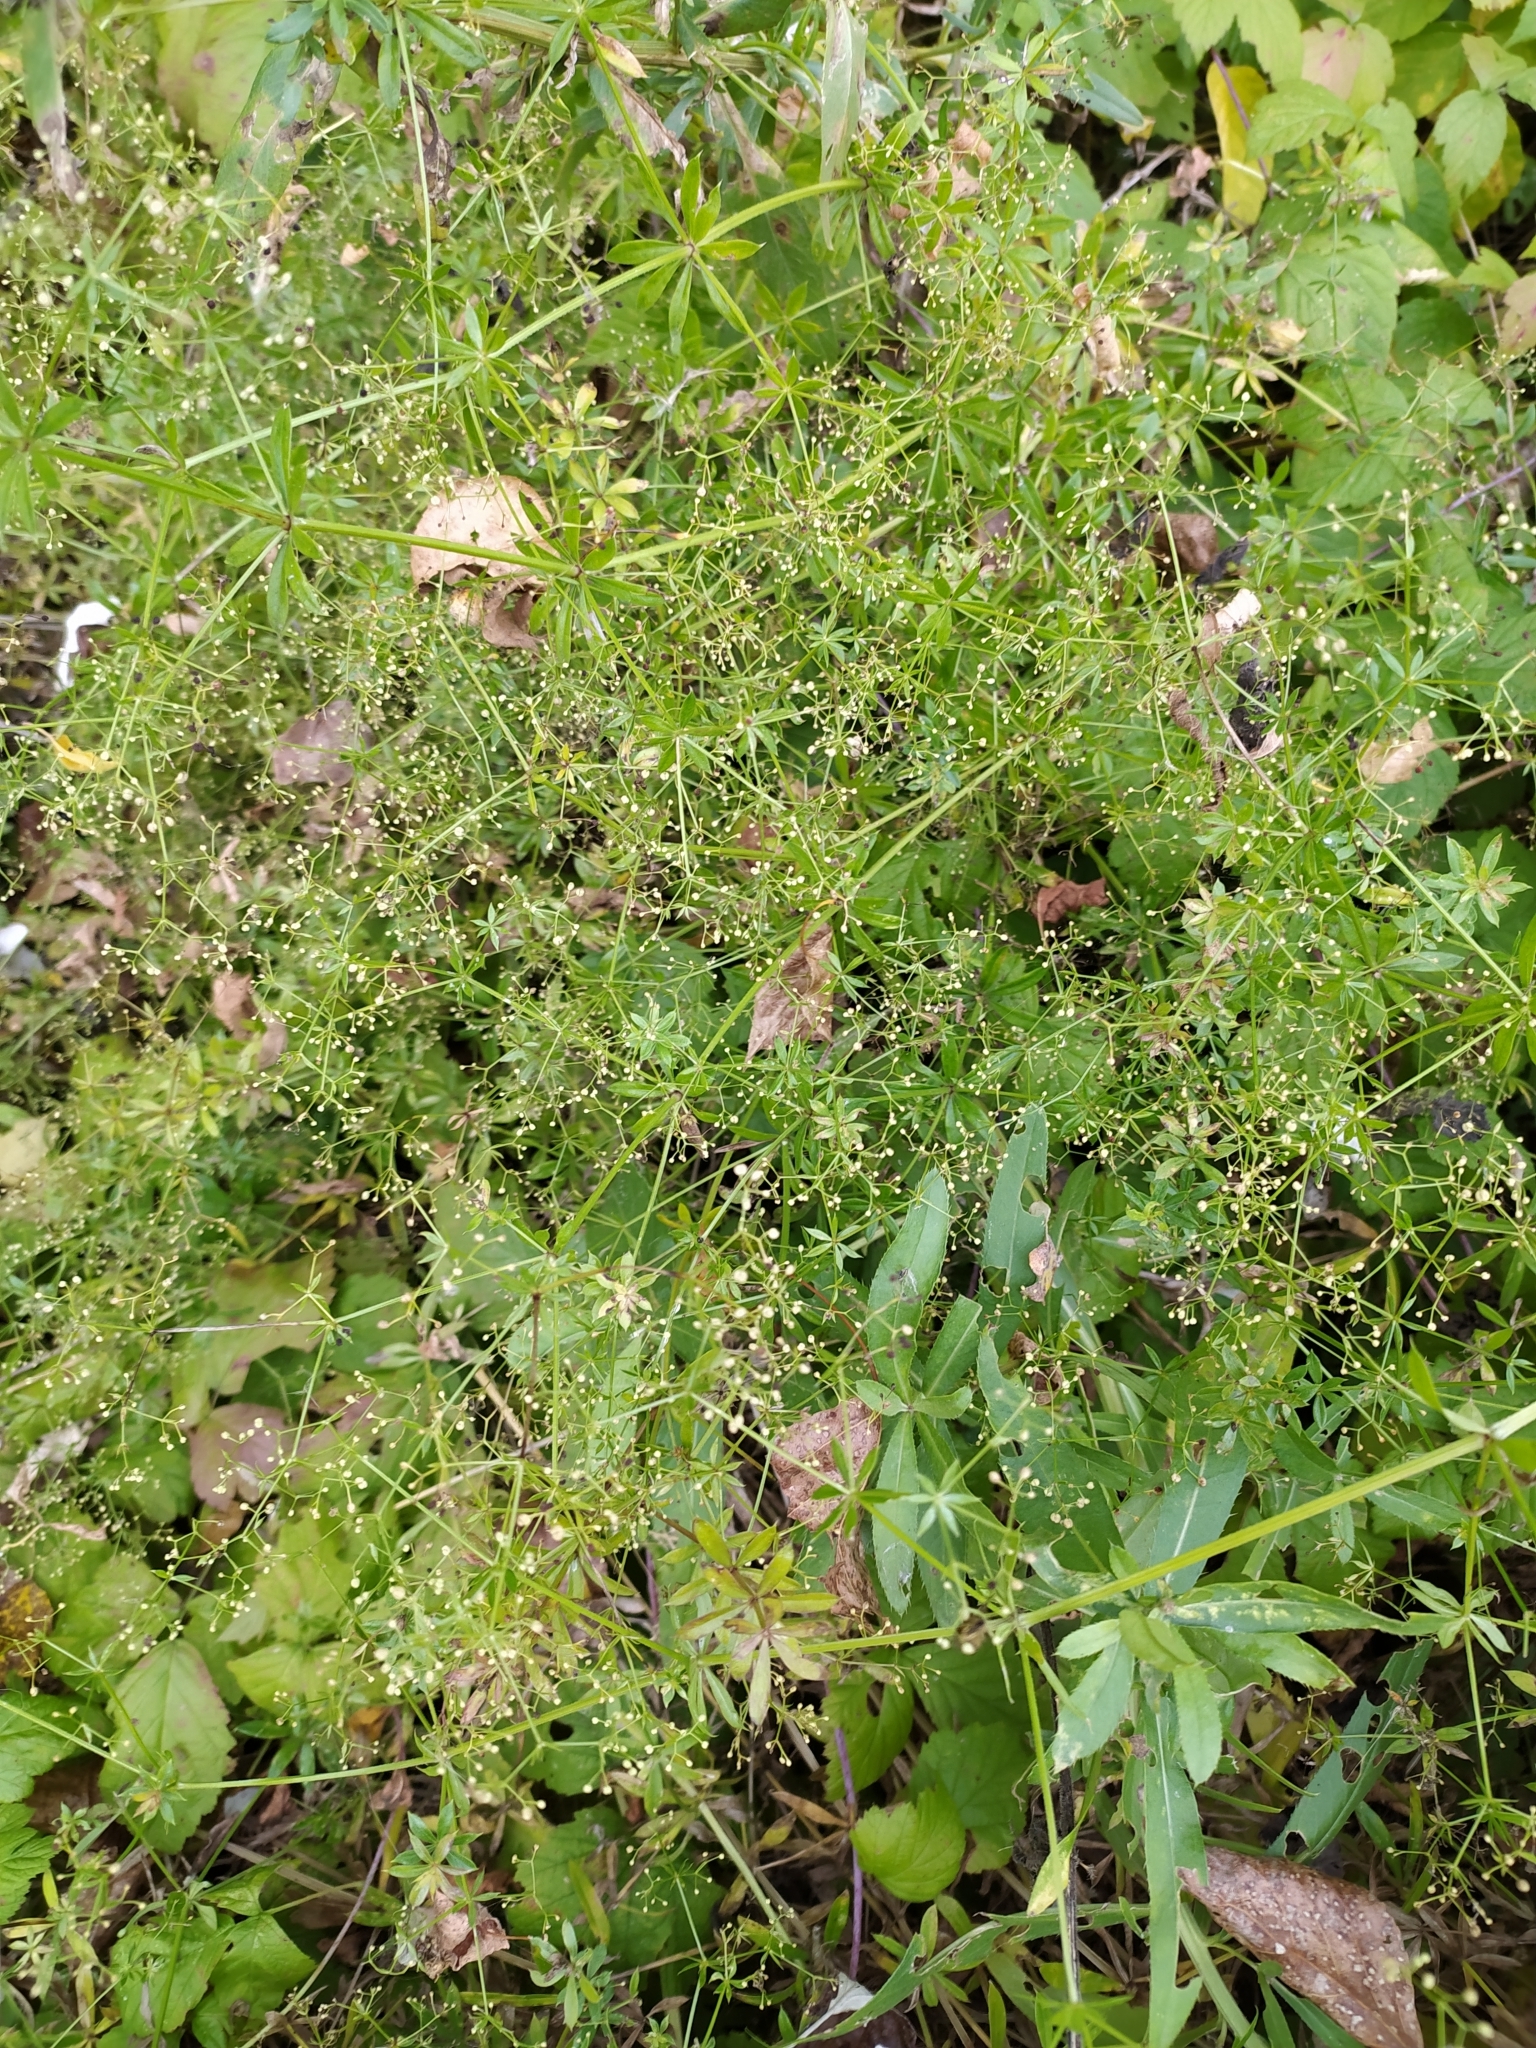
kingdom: Plantae
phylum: Tracheophyta
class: Magnoliopsida
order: Gentianales
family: Rubiaceae
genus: Galium
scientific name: Galium rivale
